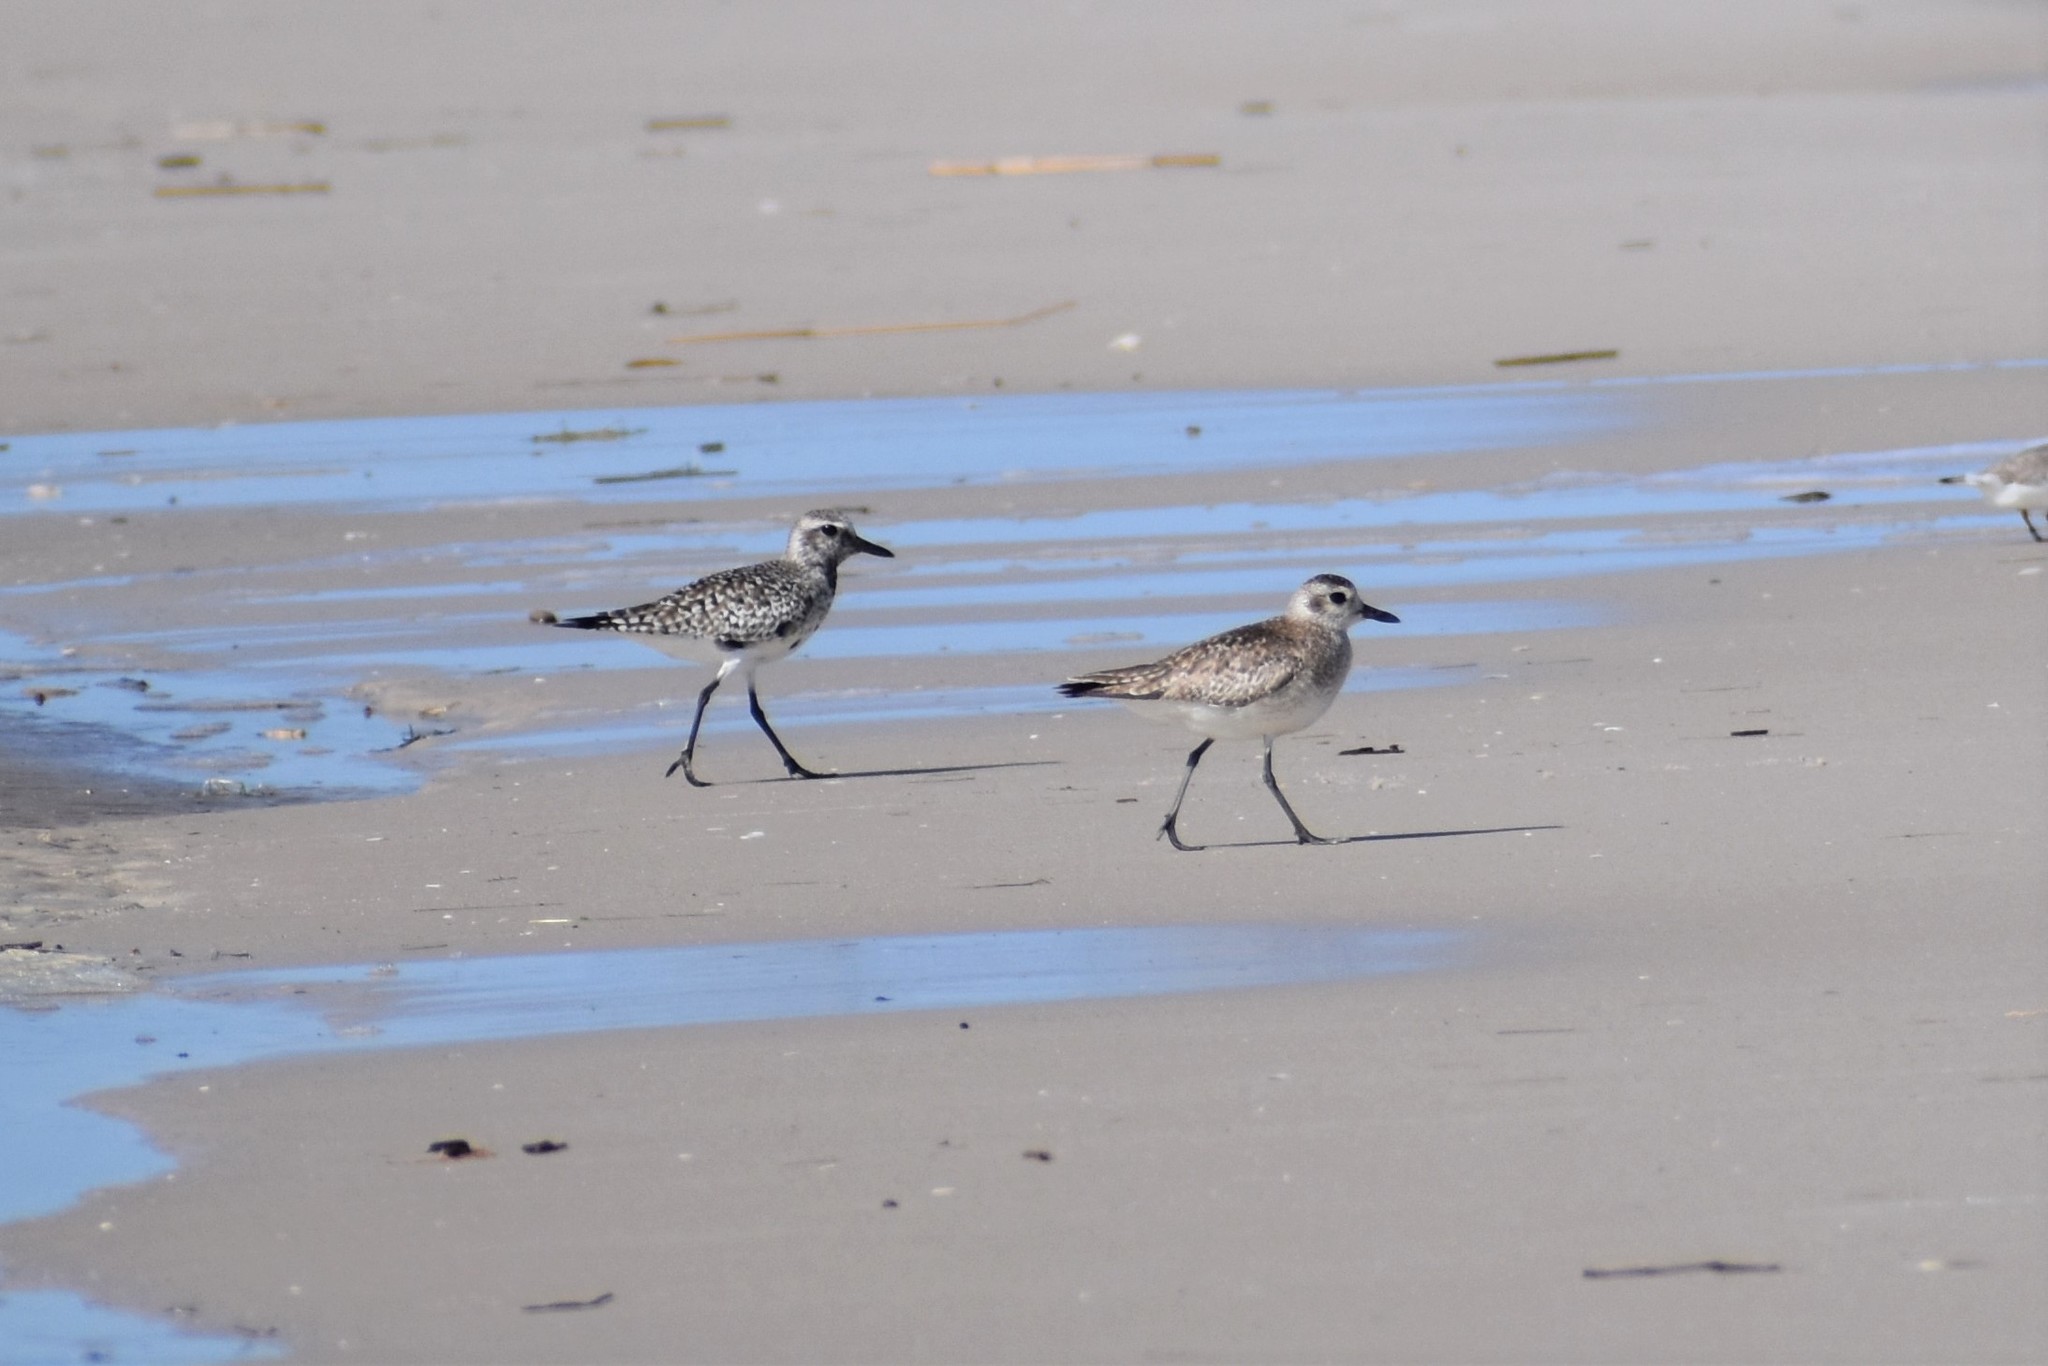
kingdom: Animalia
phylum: Chordata
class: Aves
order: Charadriiformes
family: Charadriidae
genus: Pluvialis
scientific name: Pluvialis squatarola
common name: Grey plover
